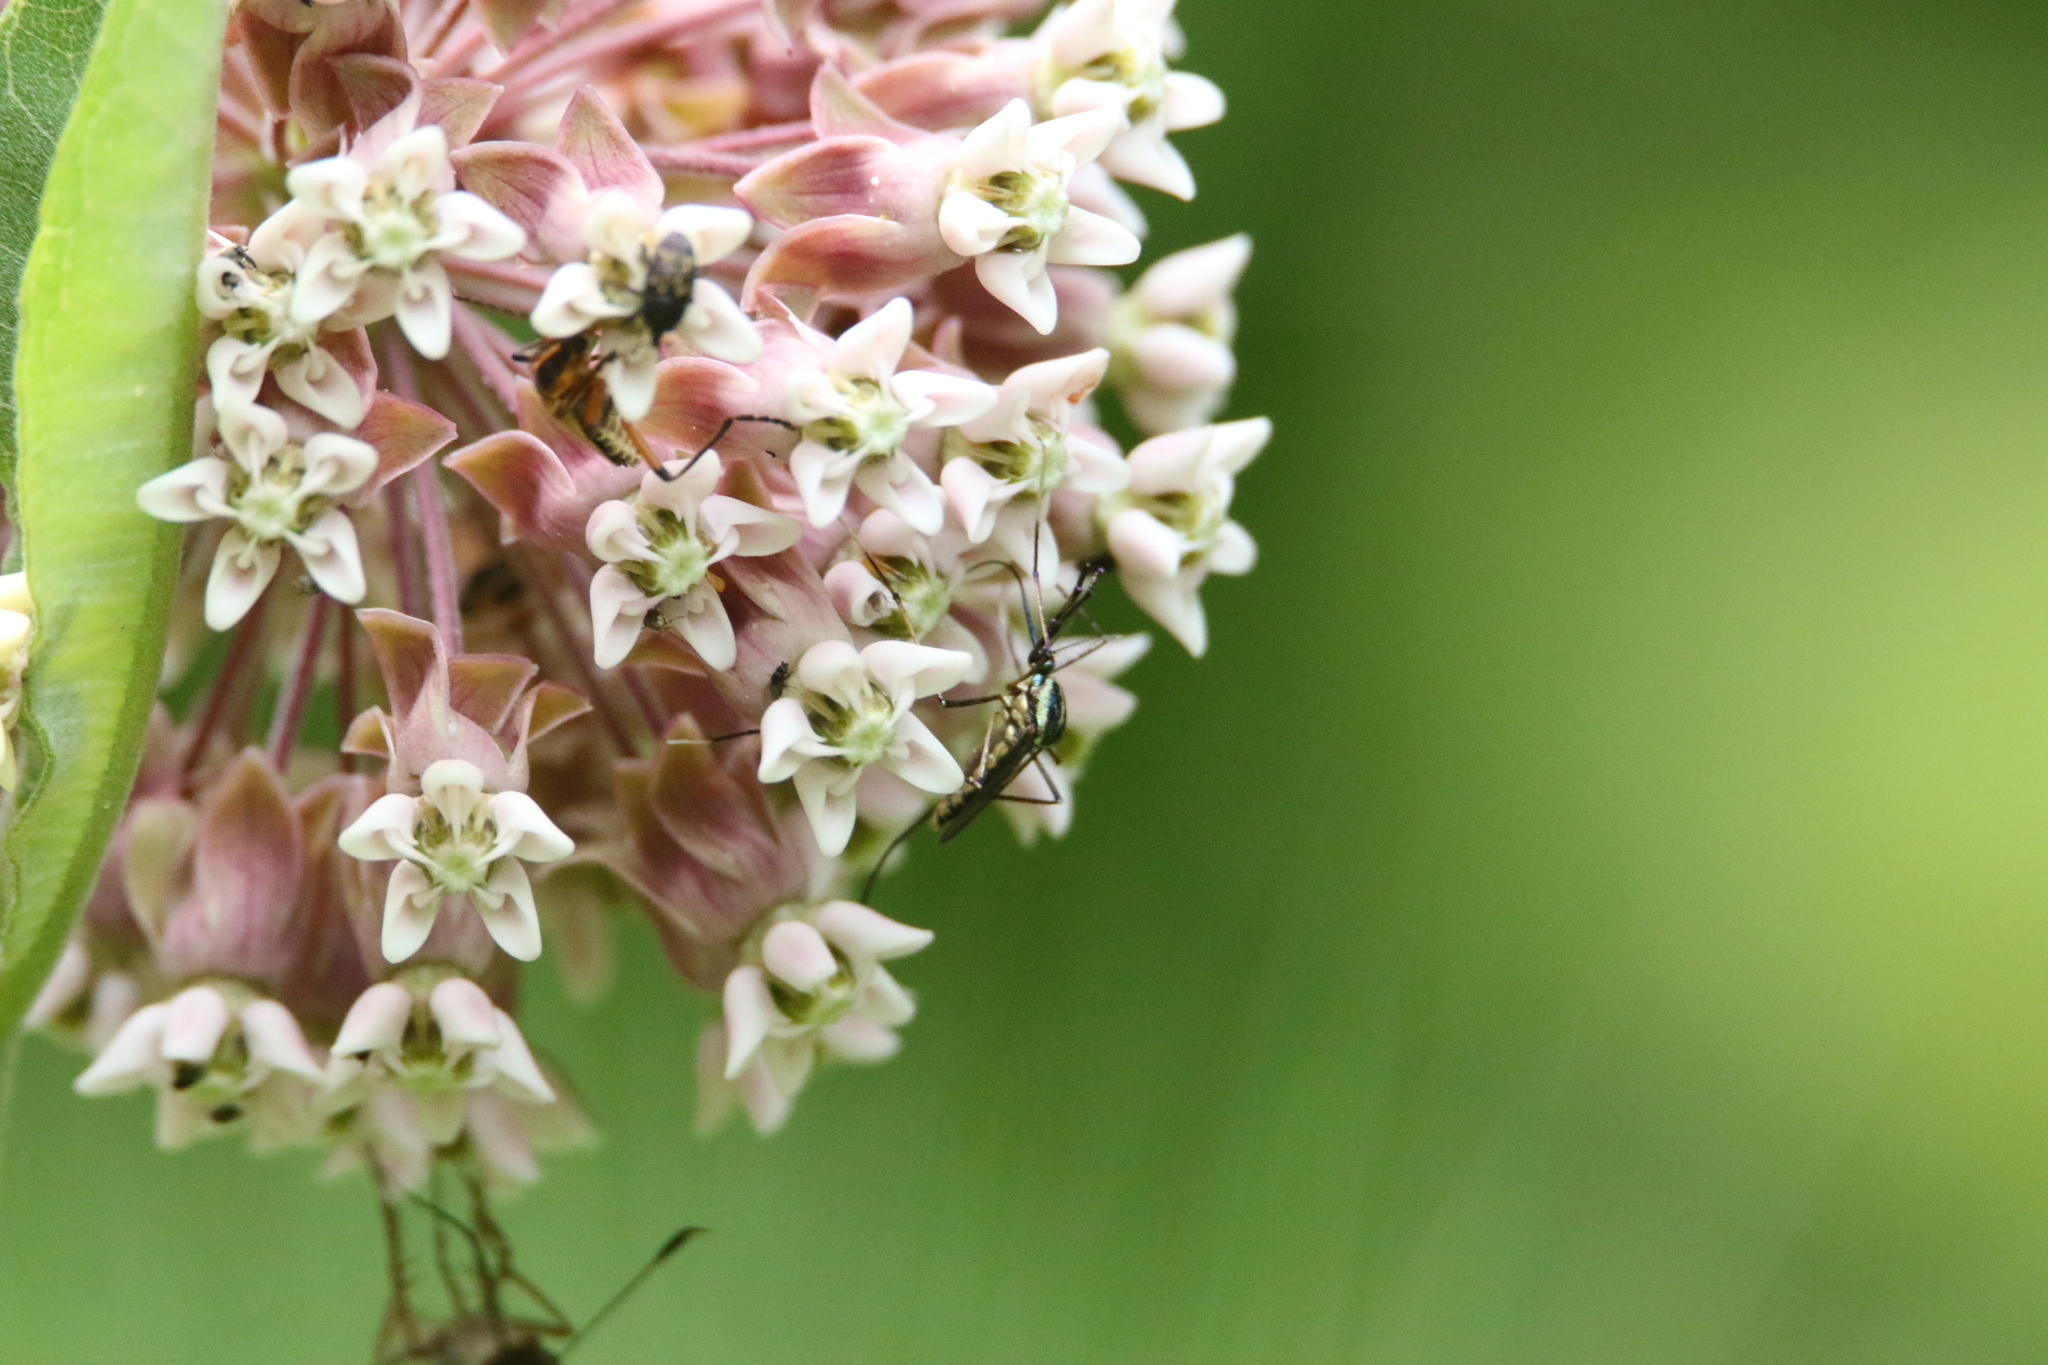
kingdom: Animalia
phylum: Arthropoda
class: Insecta
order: Diptera
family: Culicidae
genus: Toxorhynchites
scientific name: Toxorhynchites rutilus
